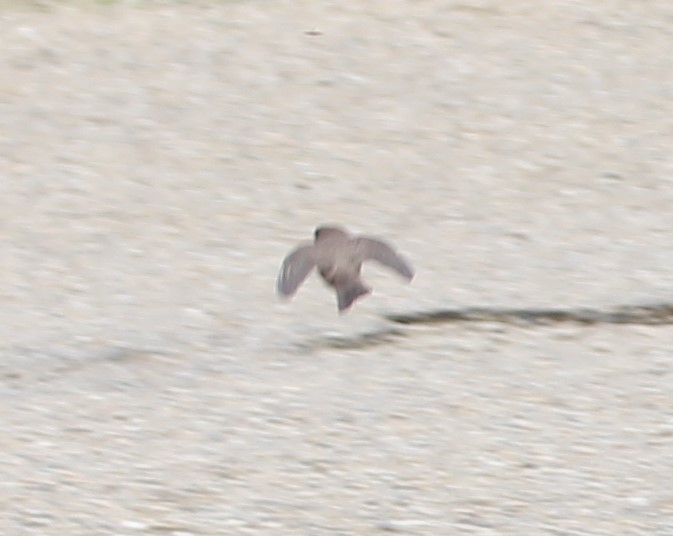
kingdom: Animalia
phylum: Chordata
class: Aves
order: Passeriformes
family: Hirundinidae
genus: Stelgidopteryx
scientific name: Stelgidopteryx serripennis
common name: Northern rough-winged swallow
